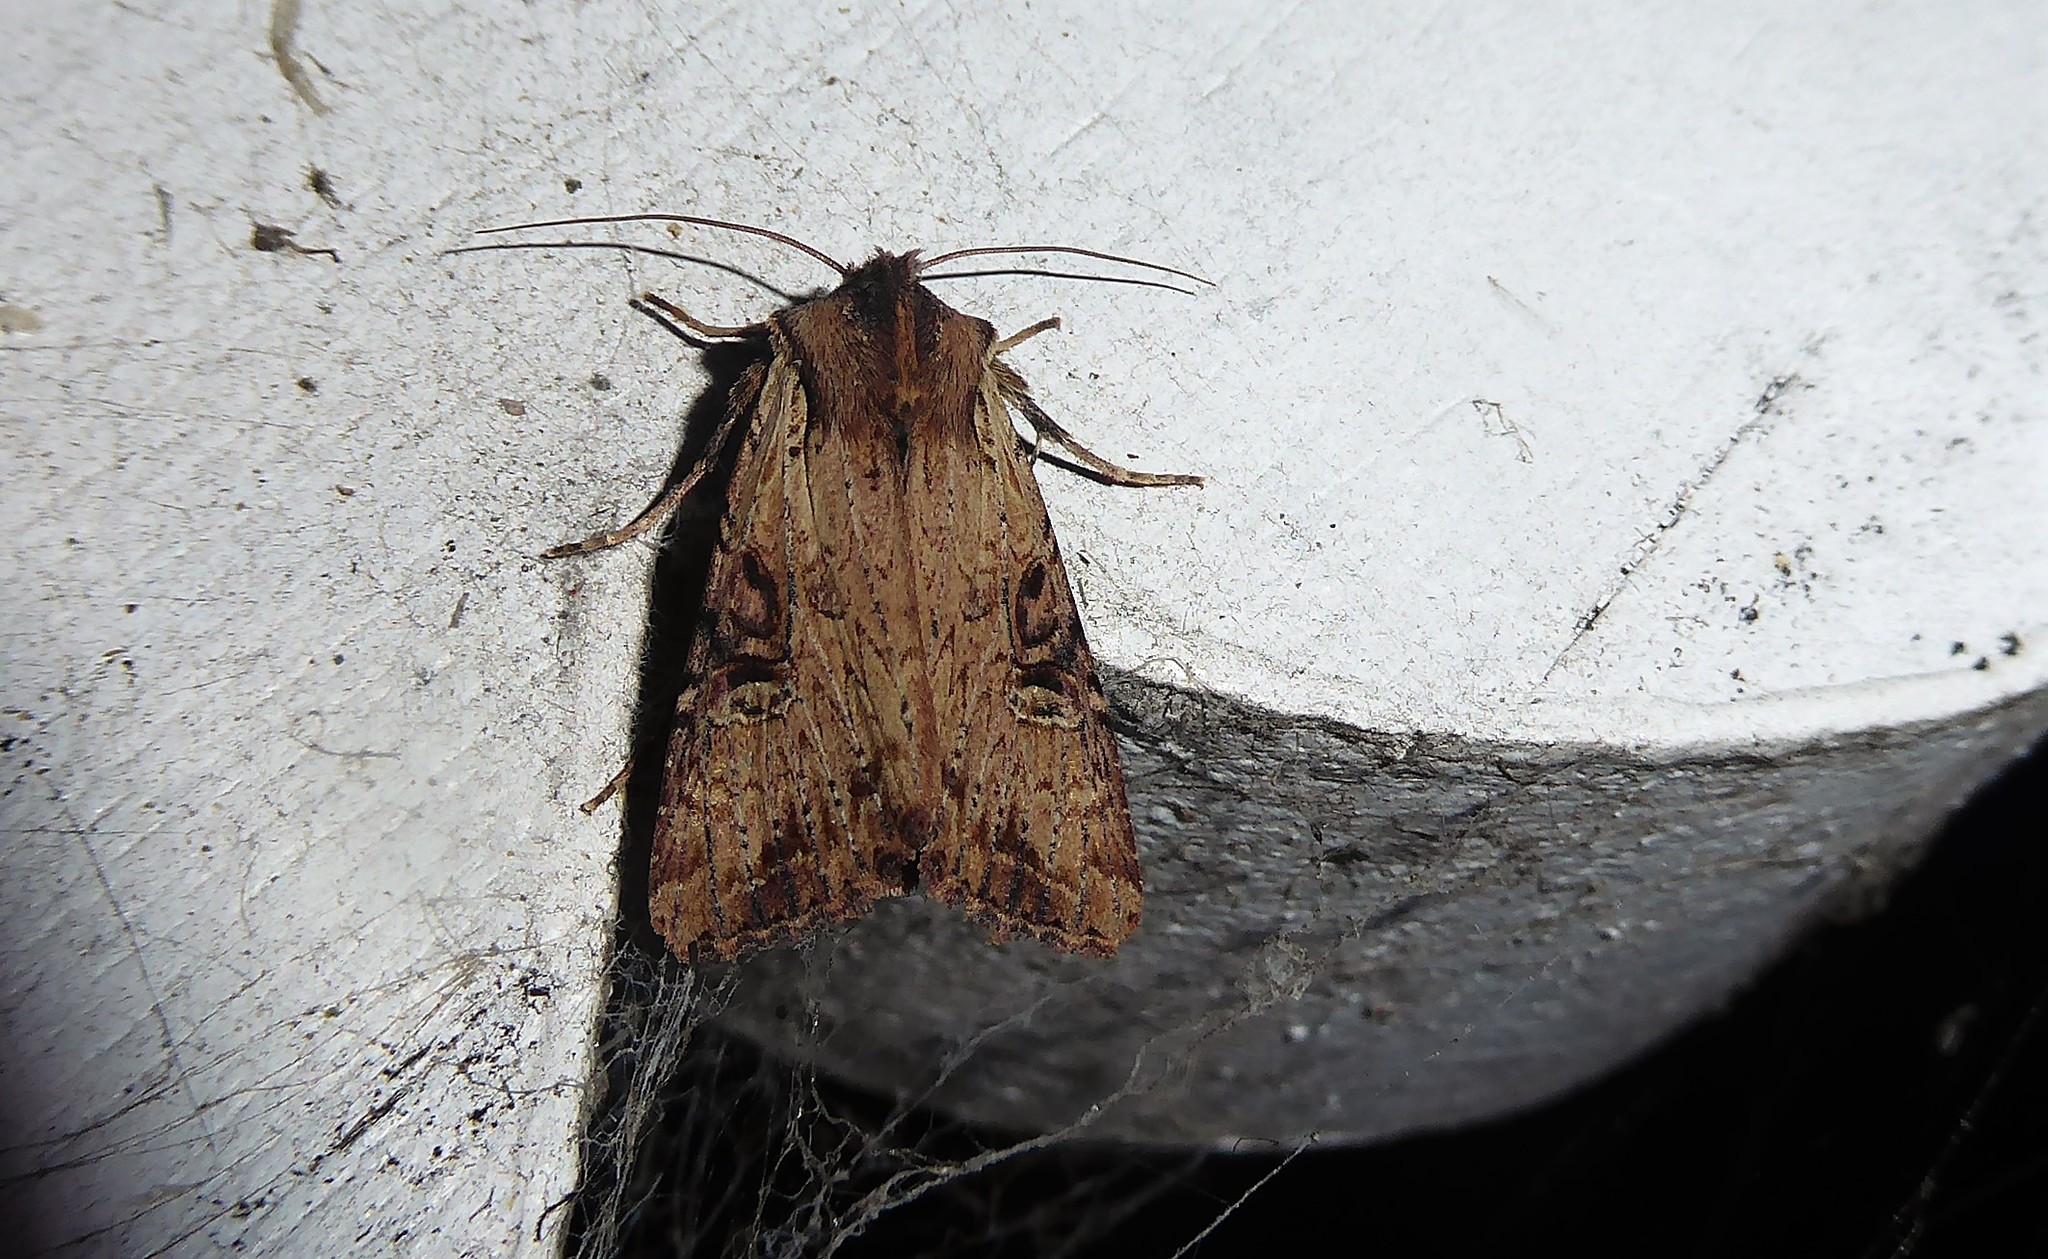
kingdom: Animalia
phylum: Arthropoda
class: Insecta
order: Lepidoptera
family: Noctuidae
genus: Ichneutica
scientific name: Ichneutica omoplaca
